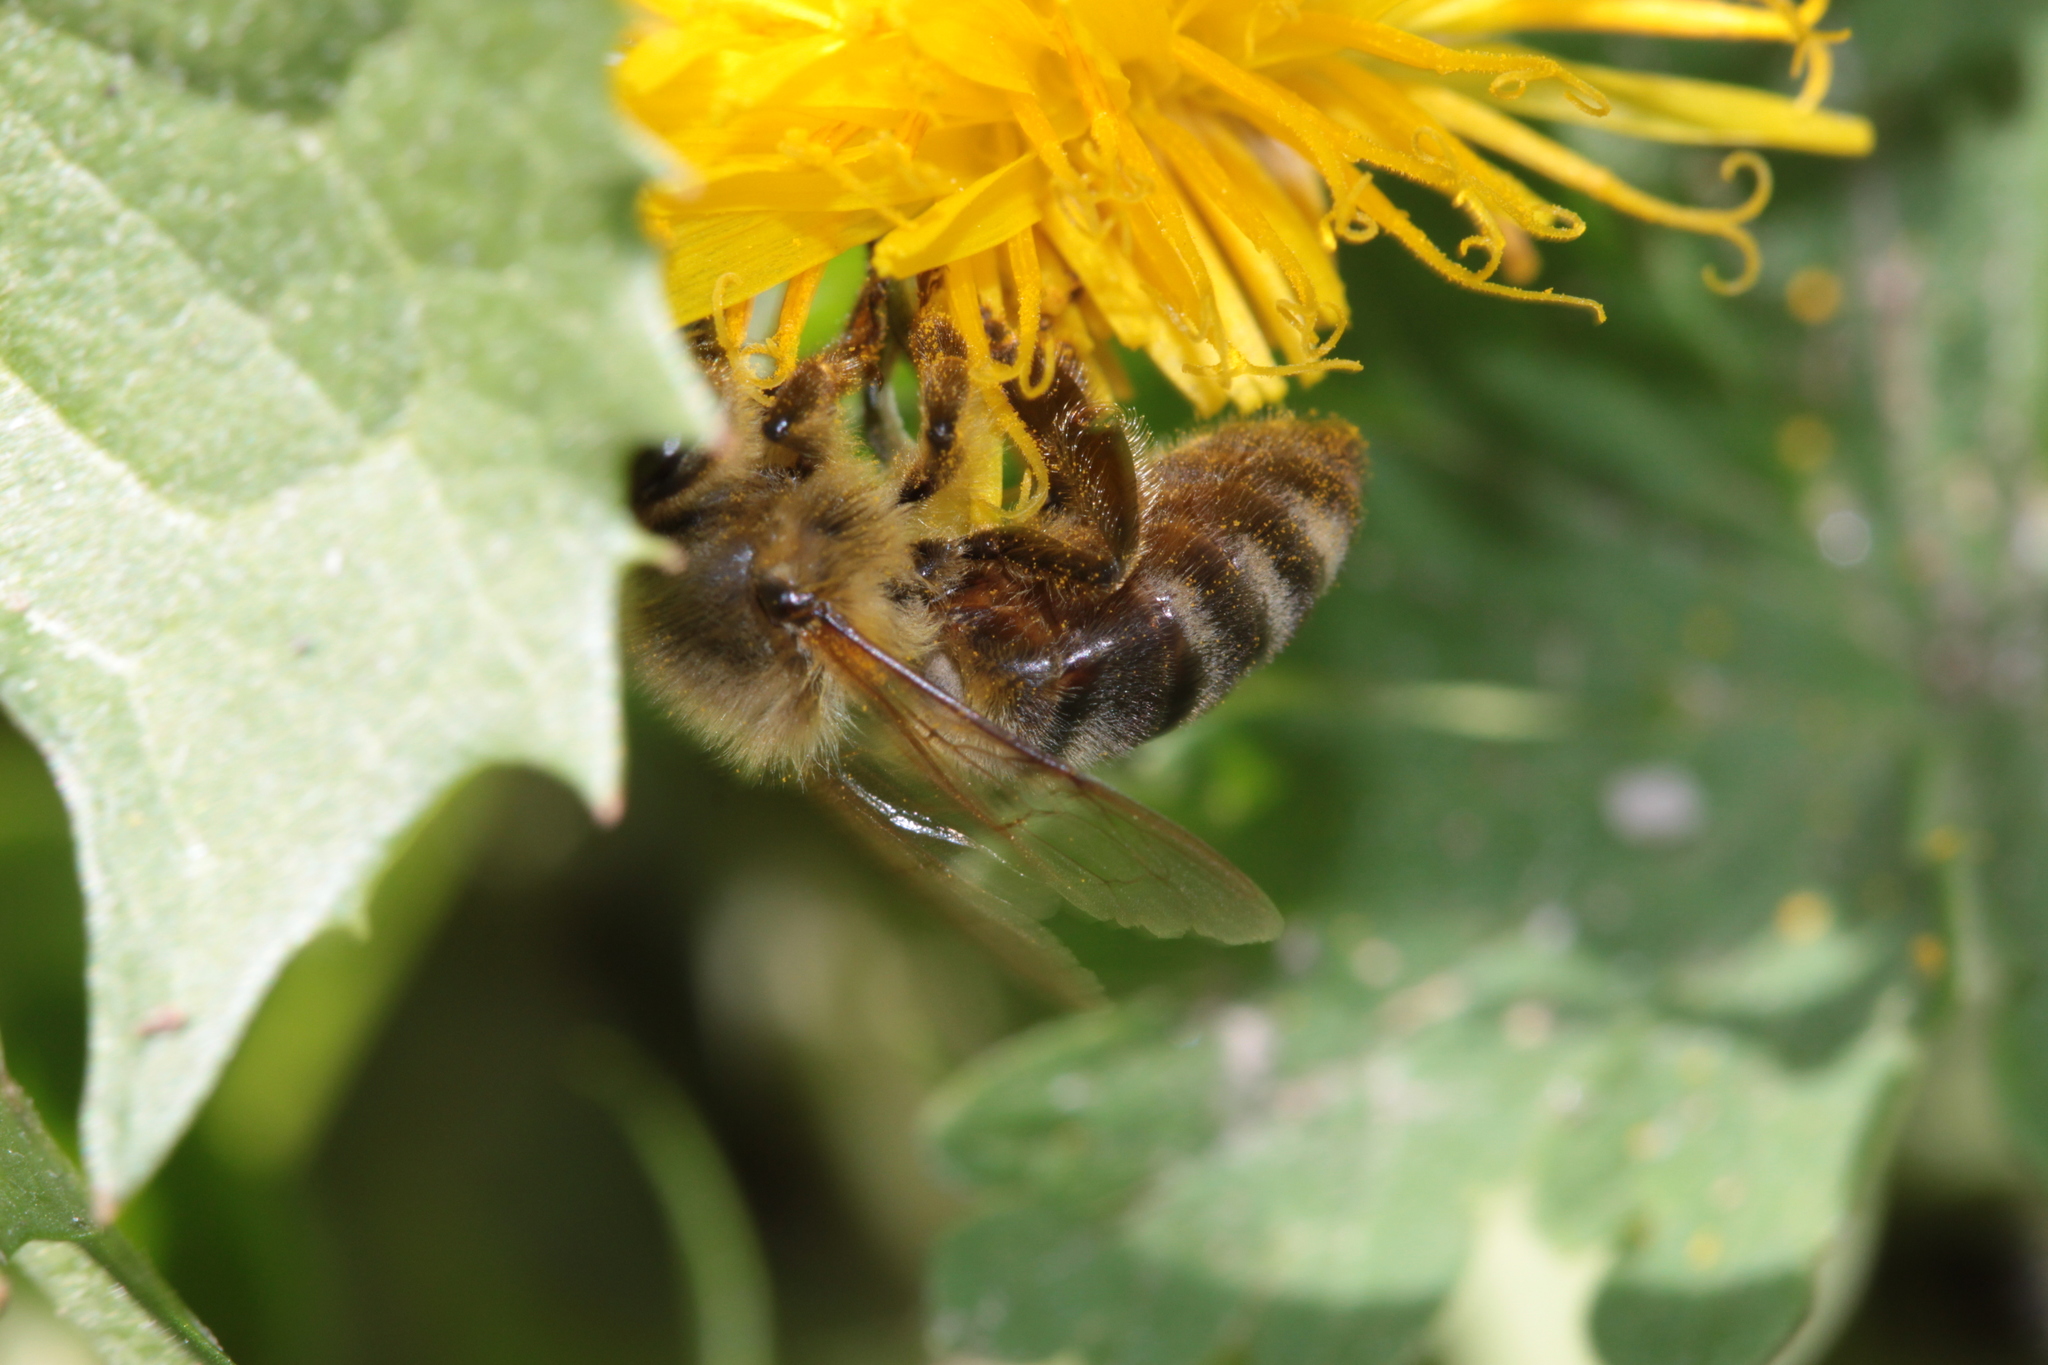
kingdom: Animalia
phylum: Arthropoda
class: Insecta
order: Hymenoptera
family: Apidae
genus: Apis
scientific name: Apis mellifera
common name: Honey bee
